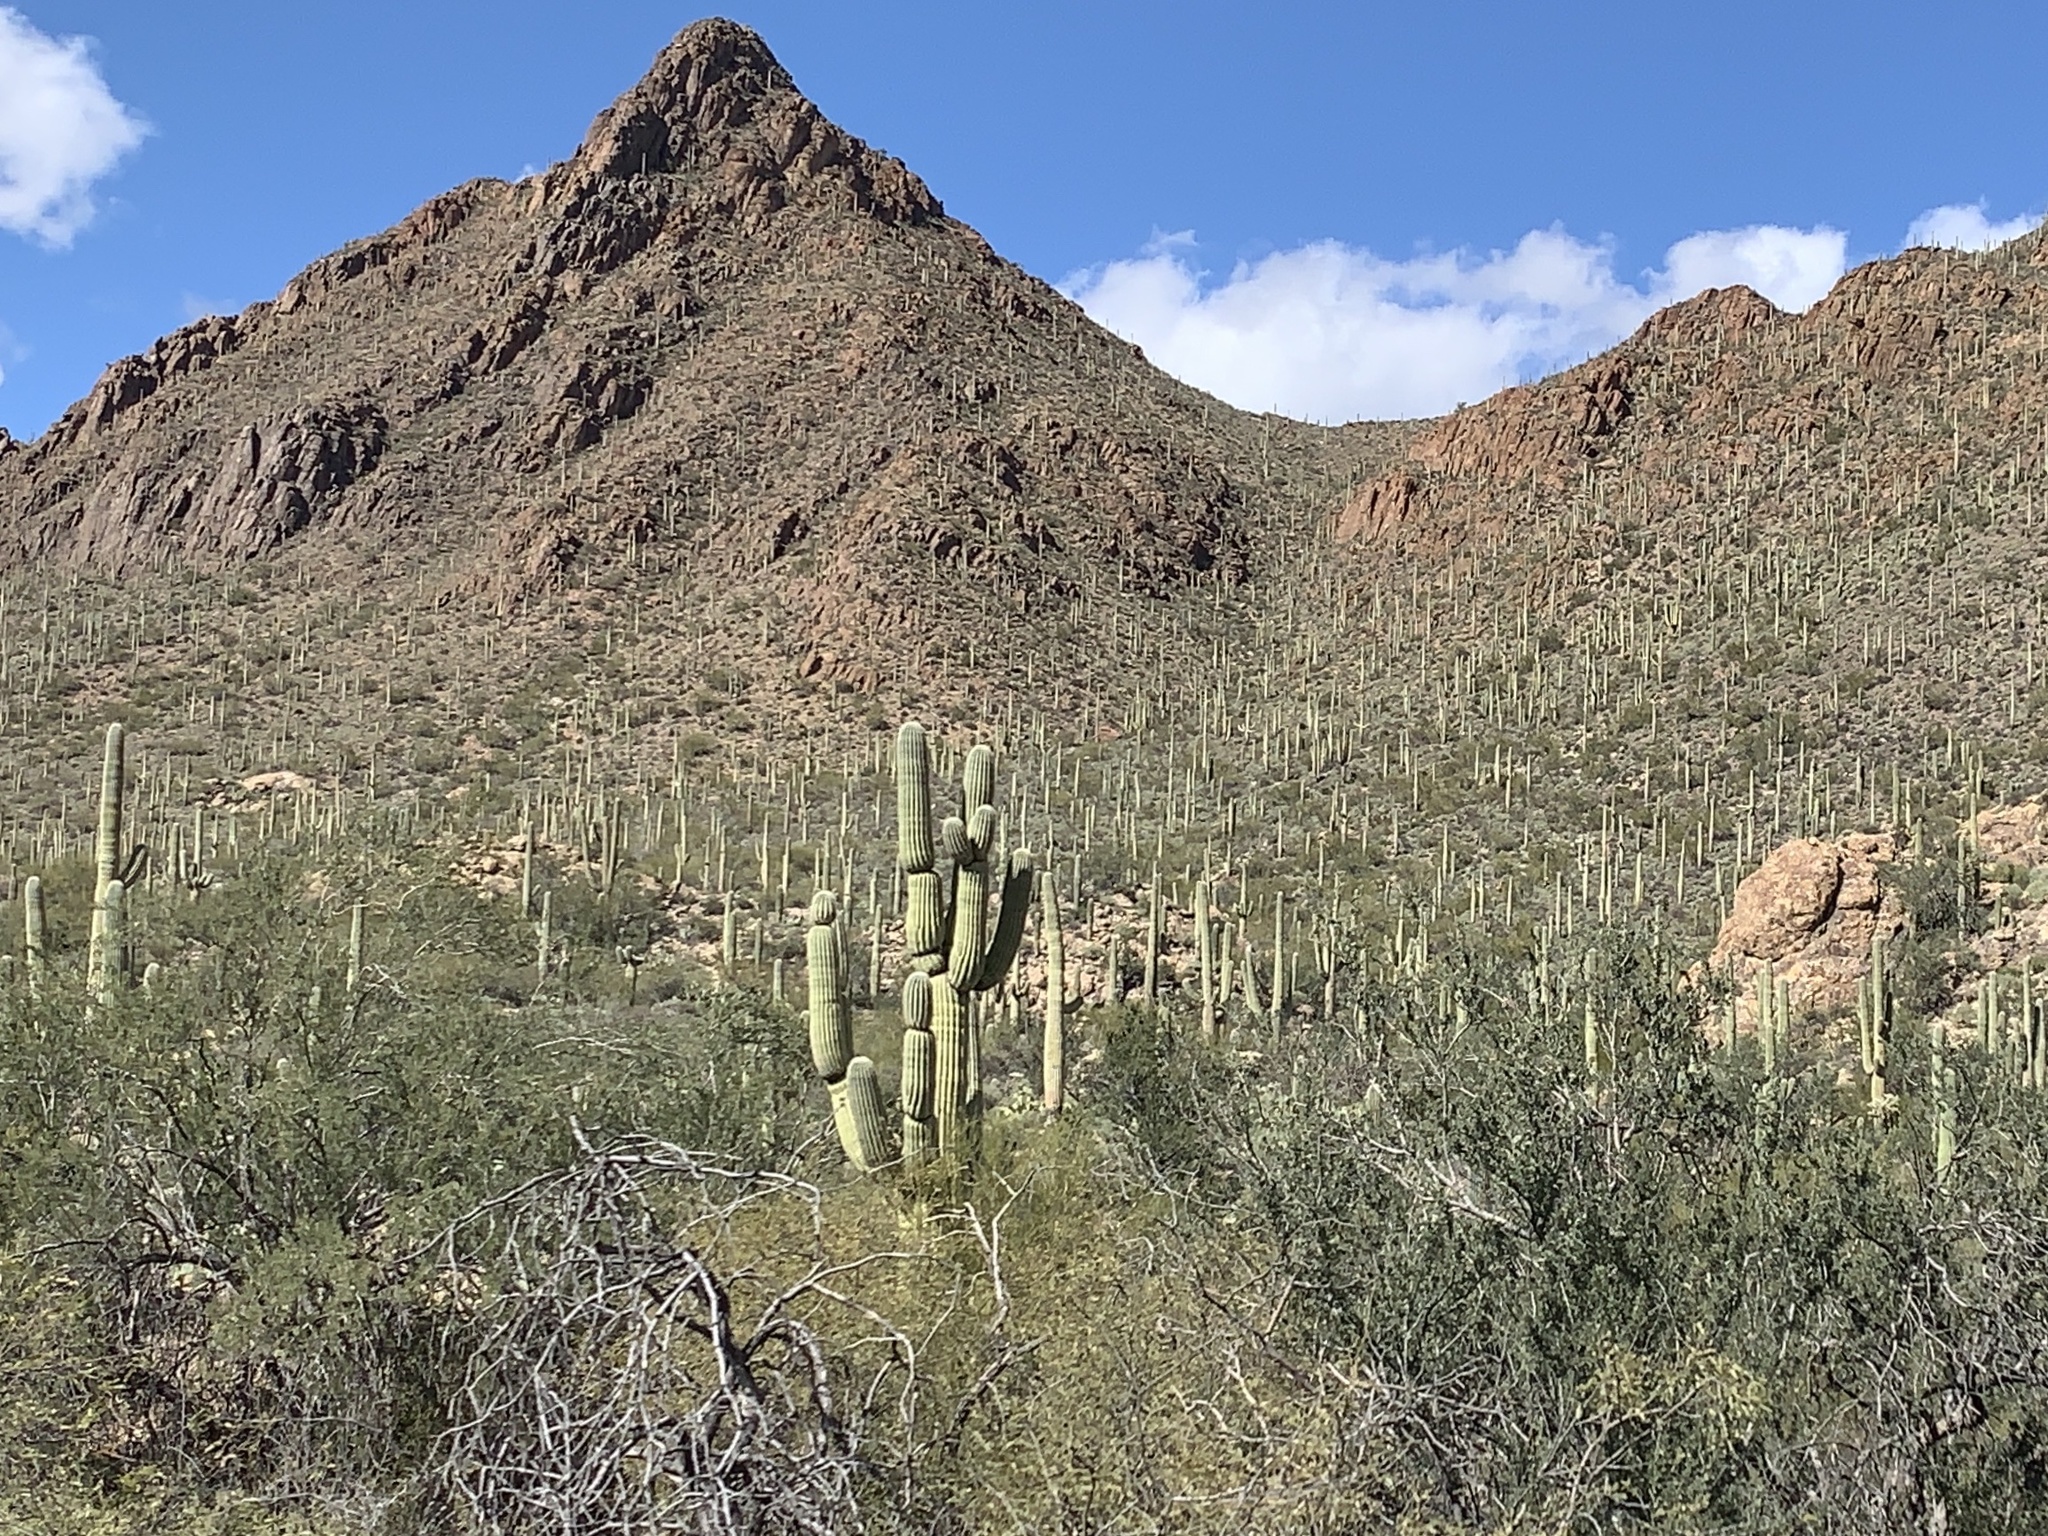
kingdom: Plantae
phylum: Tracheophyta
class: Magnoliopsida
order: Caryophyllales
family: Cactaceae
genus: Carnegiea
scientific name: Carnegiea gigantea
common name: Saguaro
